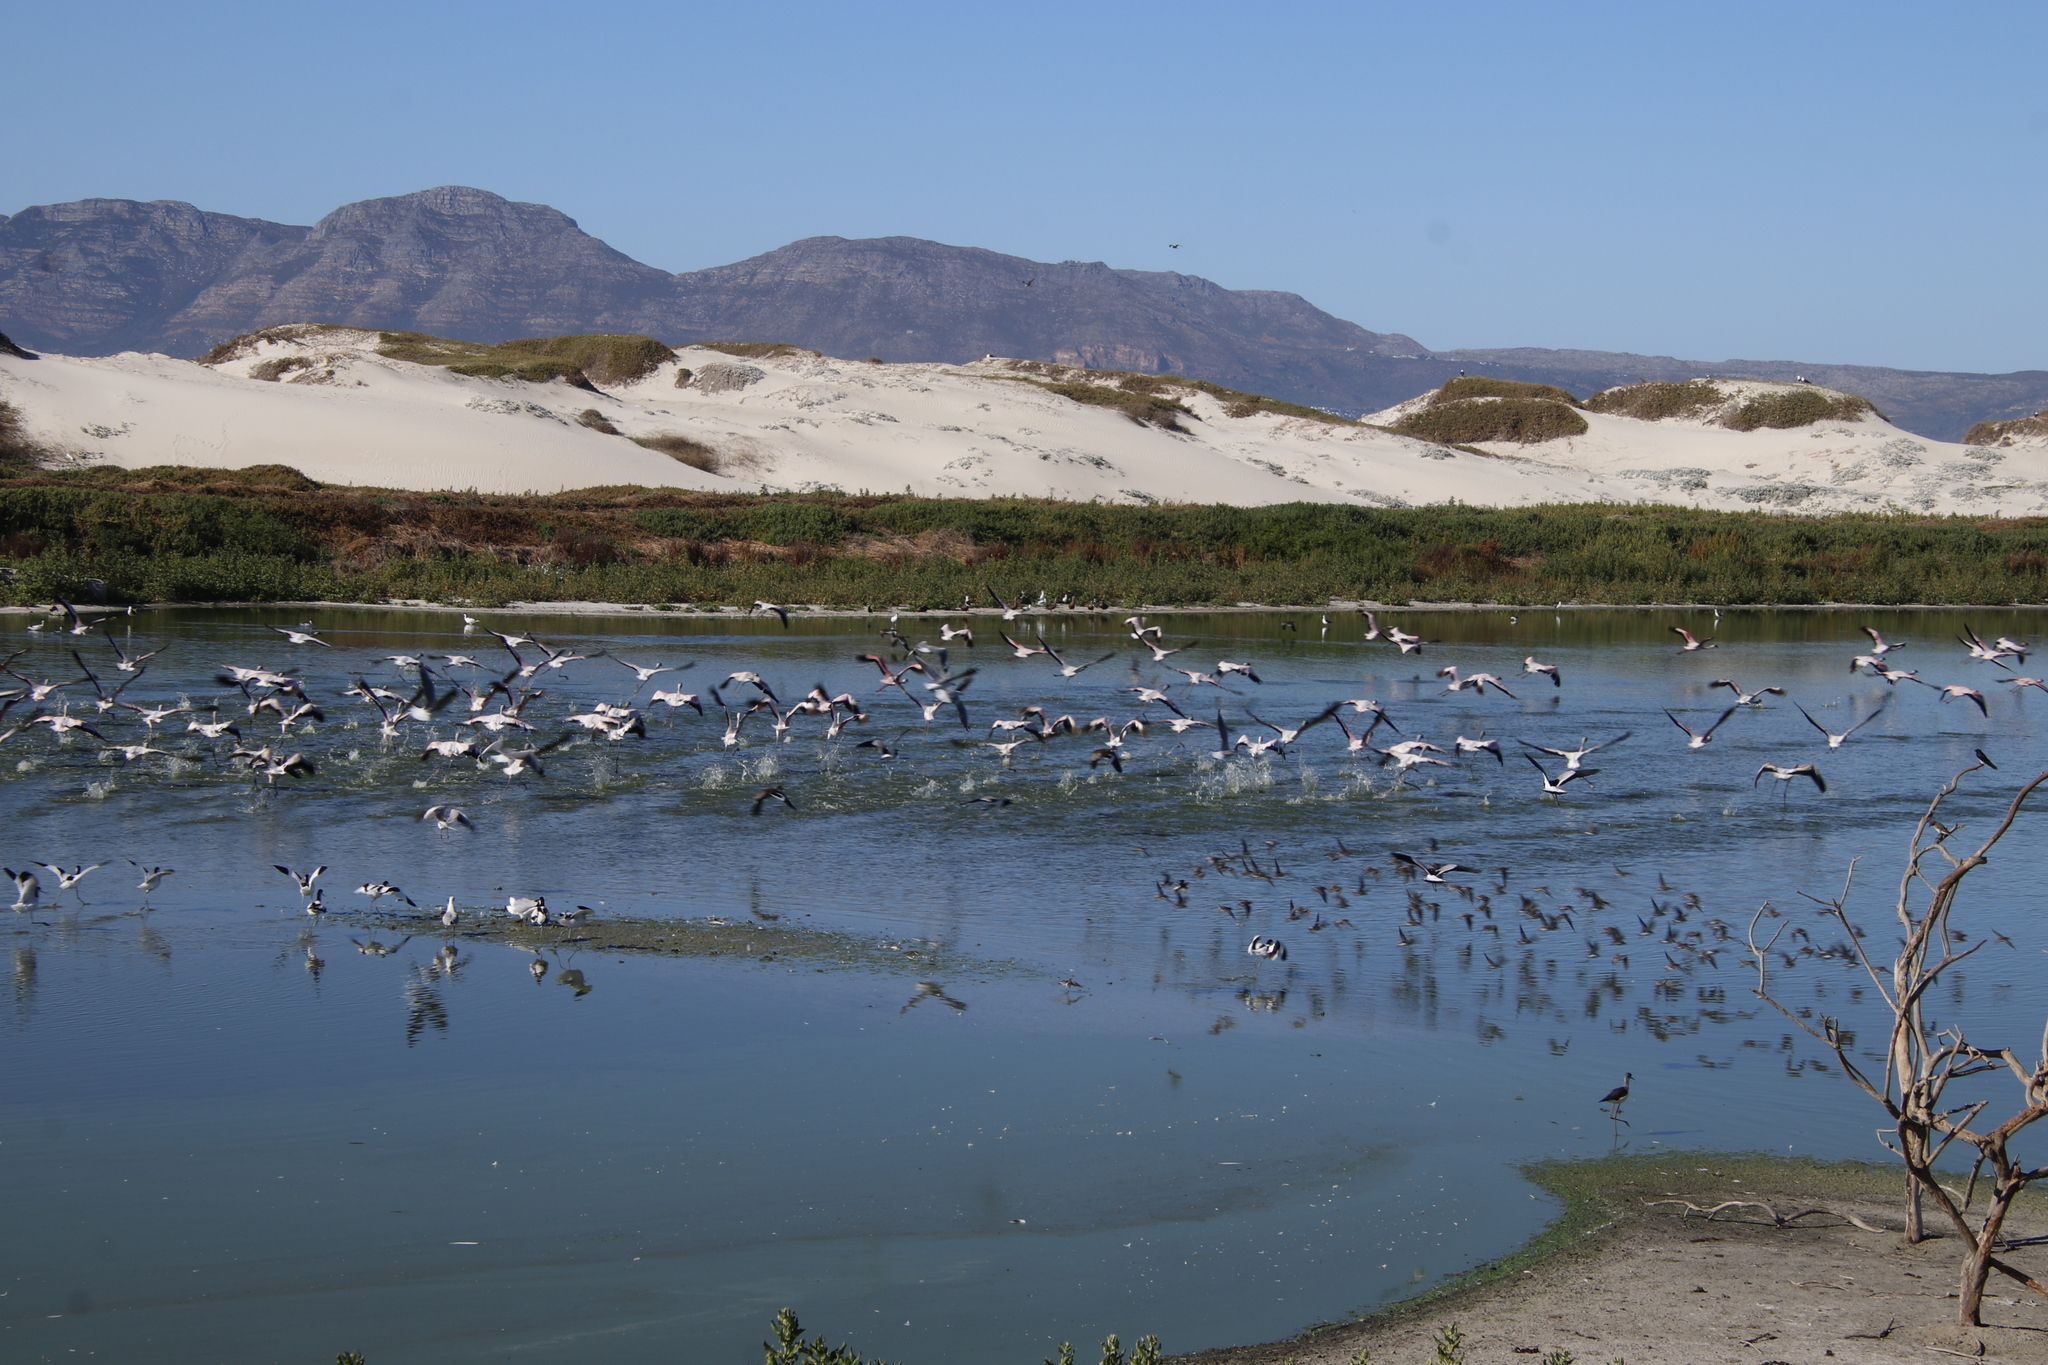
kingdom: Animalia
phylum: Chordata
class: Aves
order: Phoenicopteriformes
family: Phoenicopteridae
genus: Phoeniconaias
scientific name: Phoeniconaias minor
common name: Lesser flamingo
